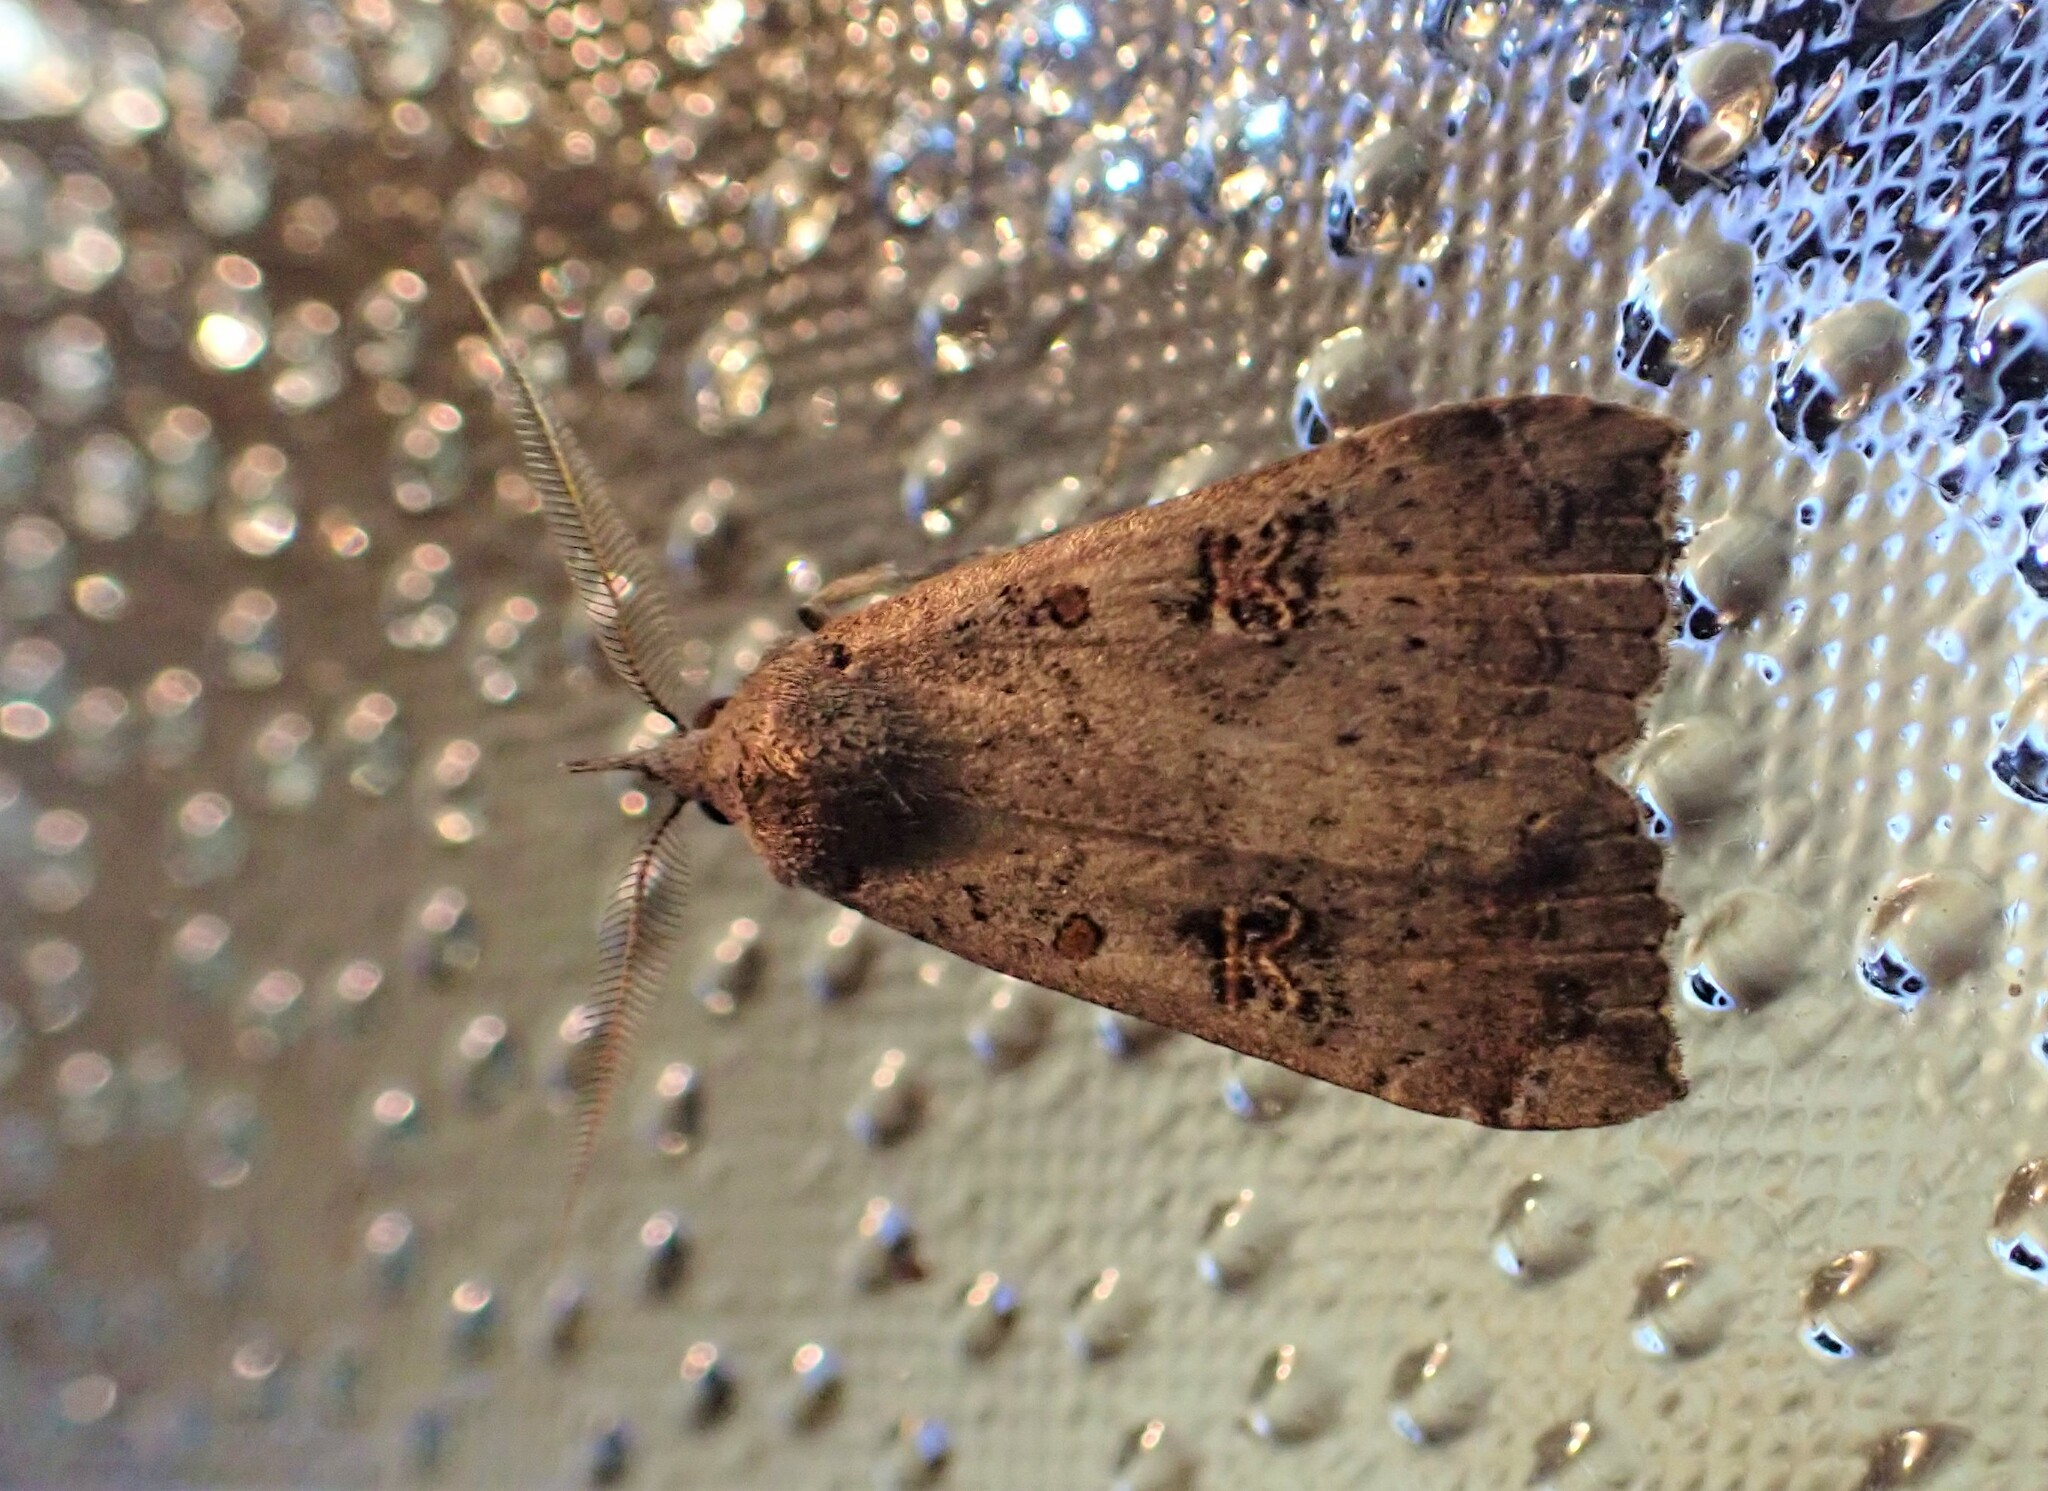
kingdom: Animalia
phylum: Arthropoda
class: Insecta
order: Lepidoptera
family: Erebidae
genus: Rhapsa
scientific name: Rhapsa scotosialis
